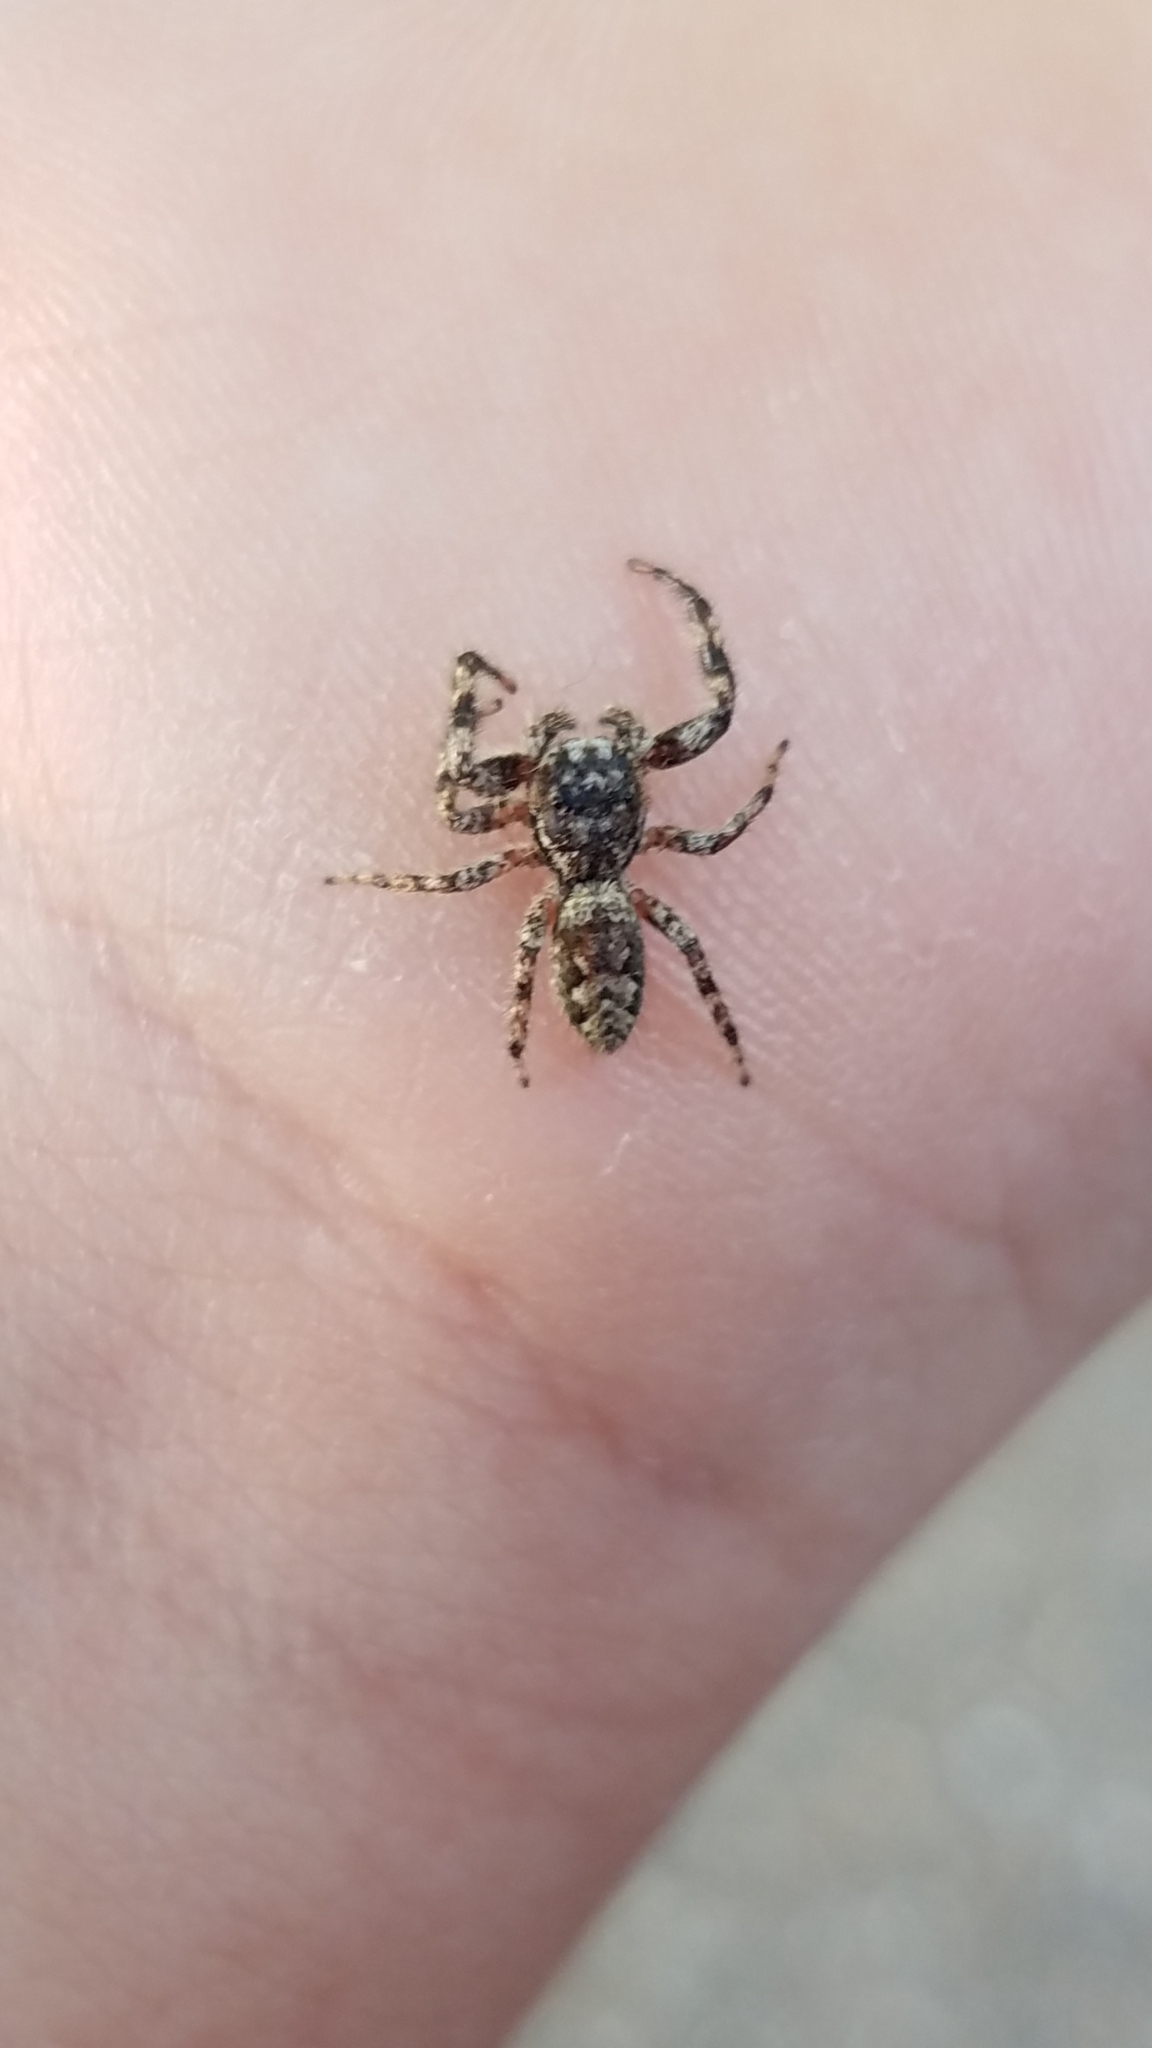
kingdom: Animalia
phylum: Arthropoda
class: Arachnida
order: Araneae
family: Salticidae
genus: Platycryptus
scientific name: Platycryptus undatus
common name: Tan jumping spider
